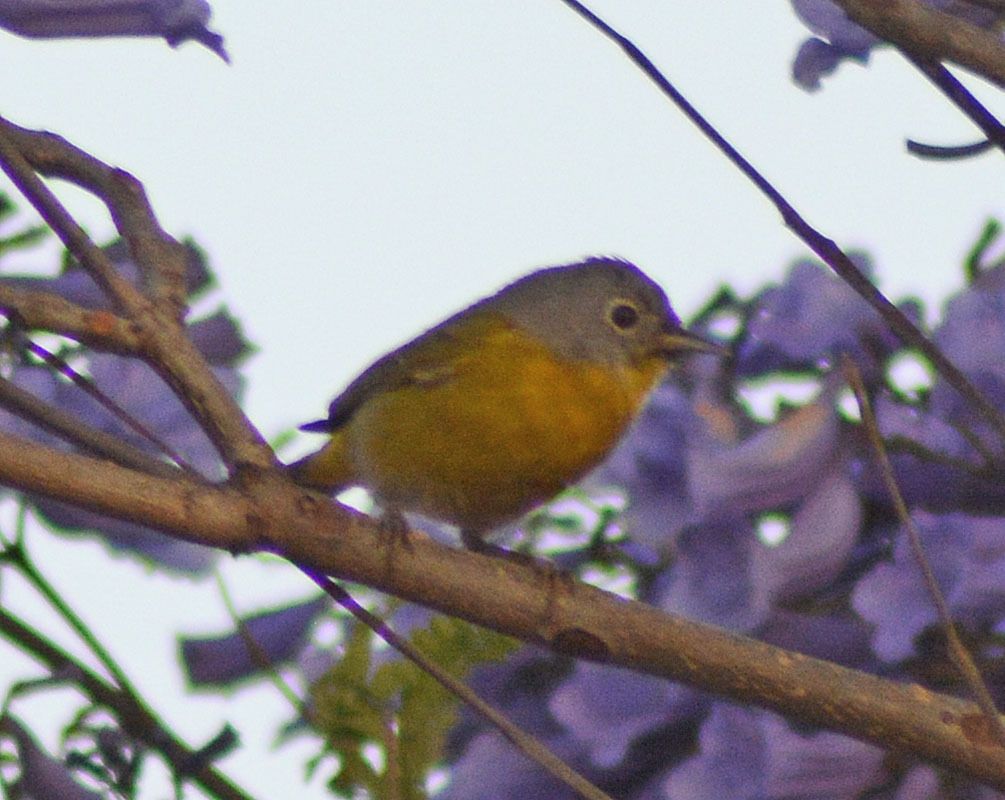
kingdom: Animalia
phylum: Chordata
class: Aves
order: Passeriformes
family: Parulidae
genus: Leiothlypis
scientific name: Leiothlypis ruficapilla
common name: Nashville warbler
